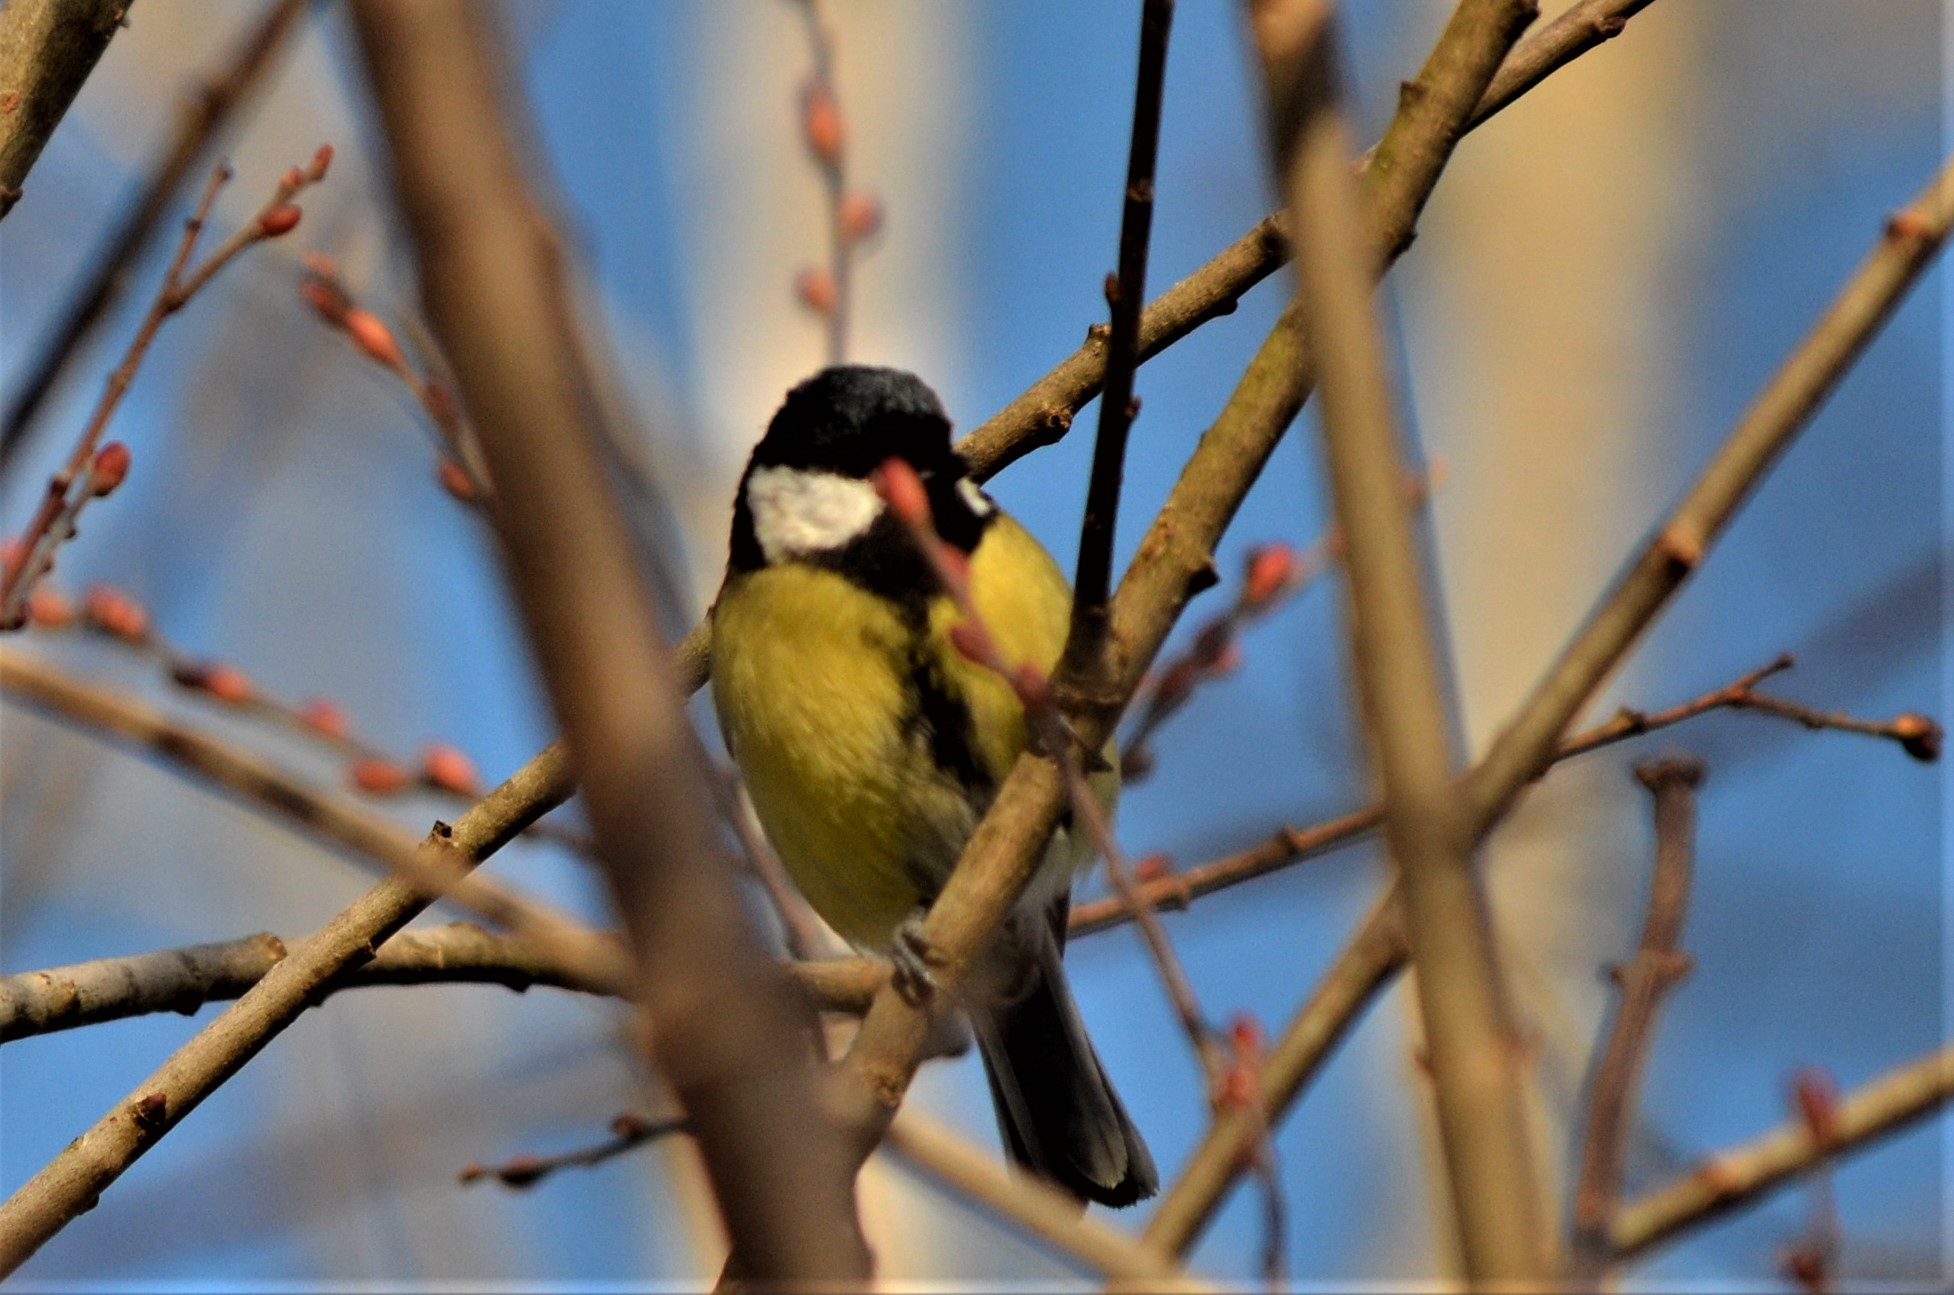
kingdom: Animalia
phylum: Chordata
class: Aves
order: Passeriformes
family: Paridae
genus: Parus
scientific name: Parus major
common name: Great tit
